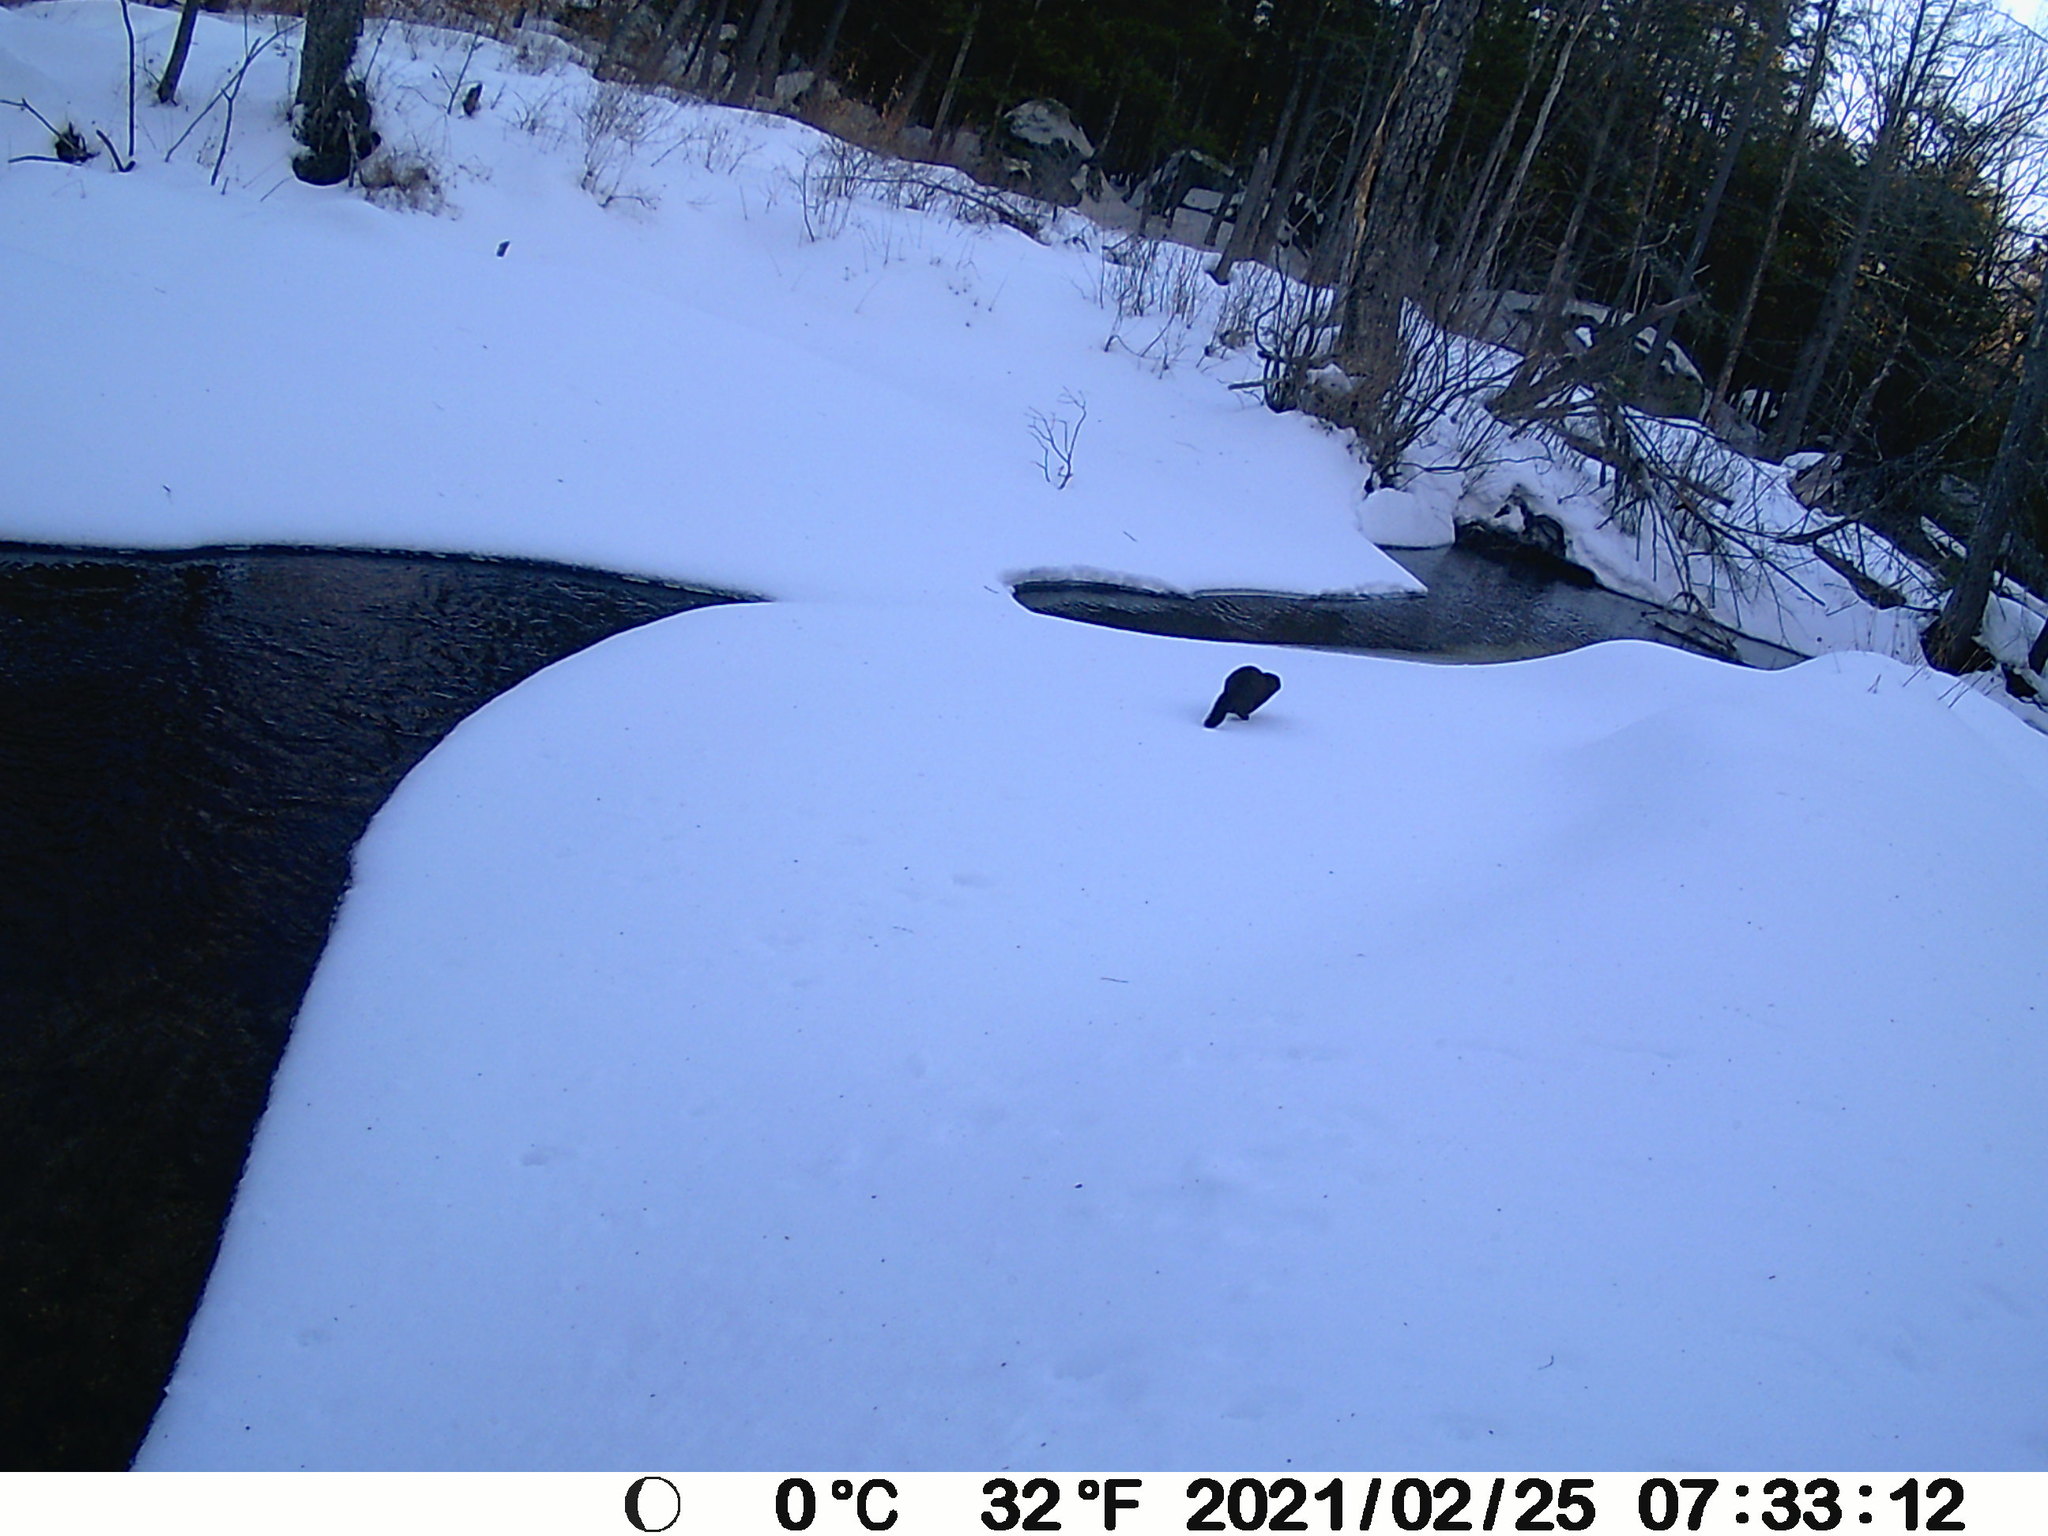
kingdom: Animalia
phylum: Chordata
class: Mammalia
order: Carnivora
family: Mustelidae
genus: Mustela
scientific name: Mustela
